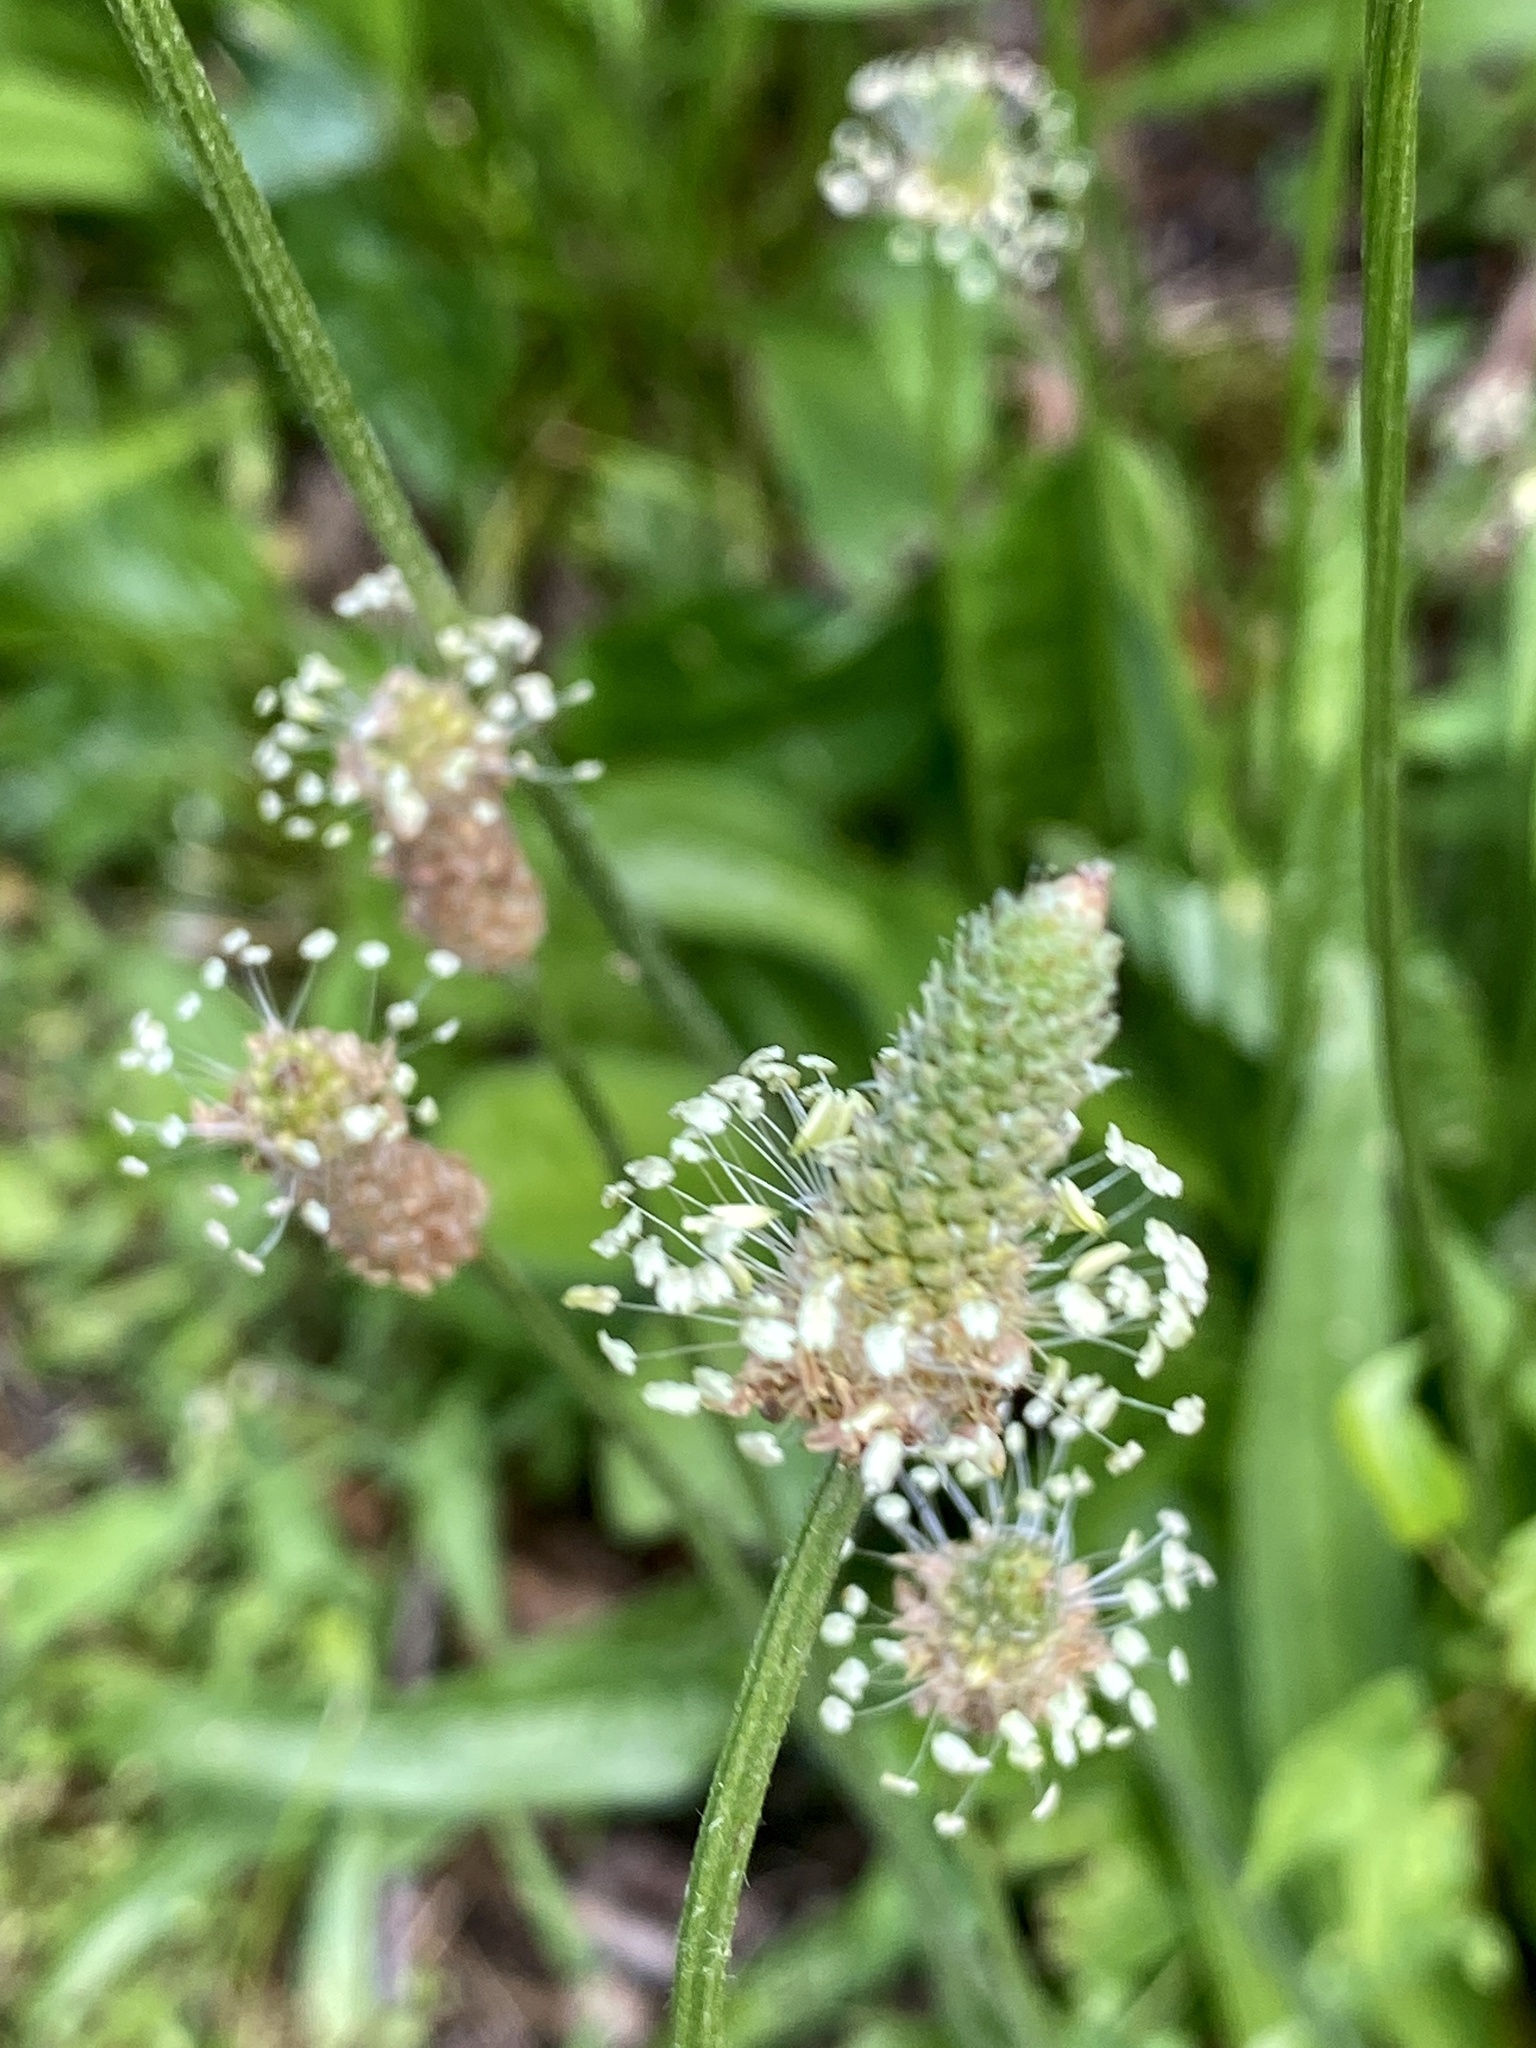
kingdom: Plantae
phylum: Tracheophyta
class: Magnoliopsida
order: Lamiales
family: Plantaginaceae
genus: Plantago
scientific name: Plantago lanceolata
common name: Ribwort plantain
